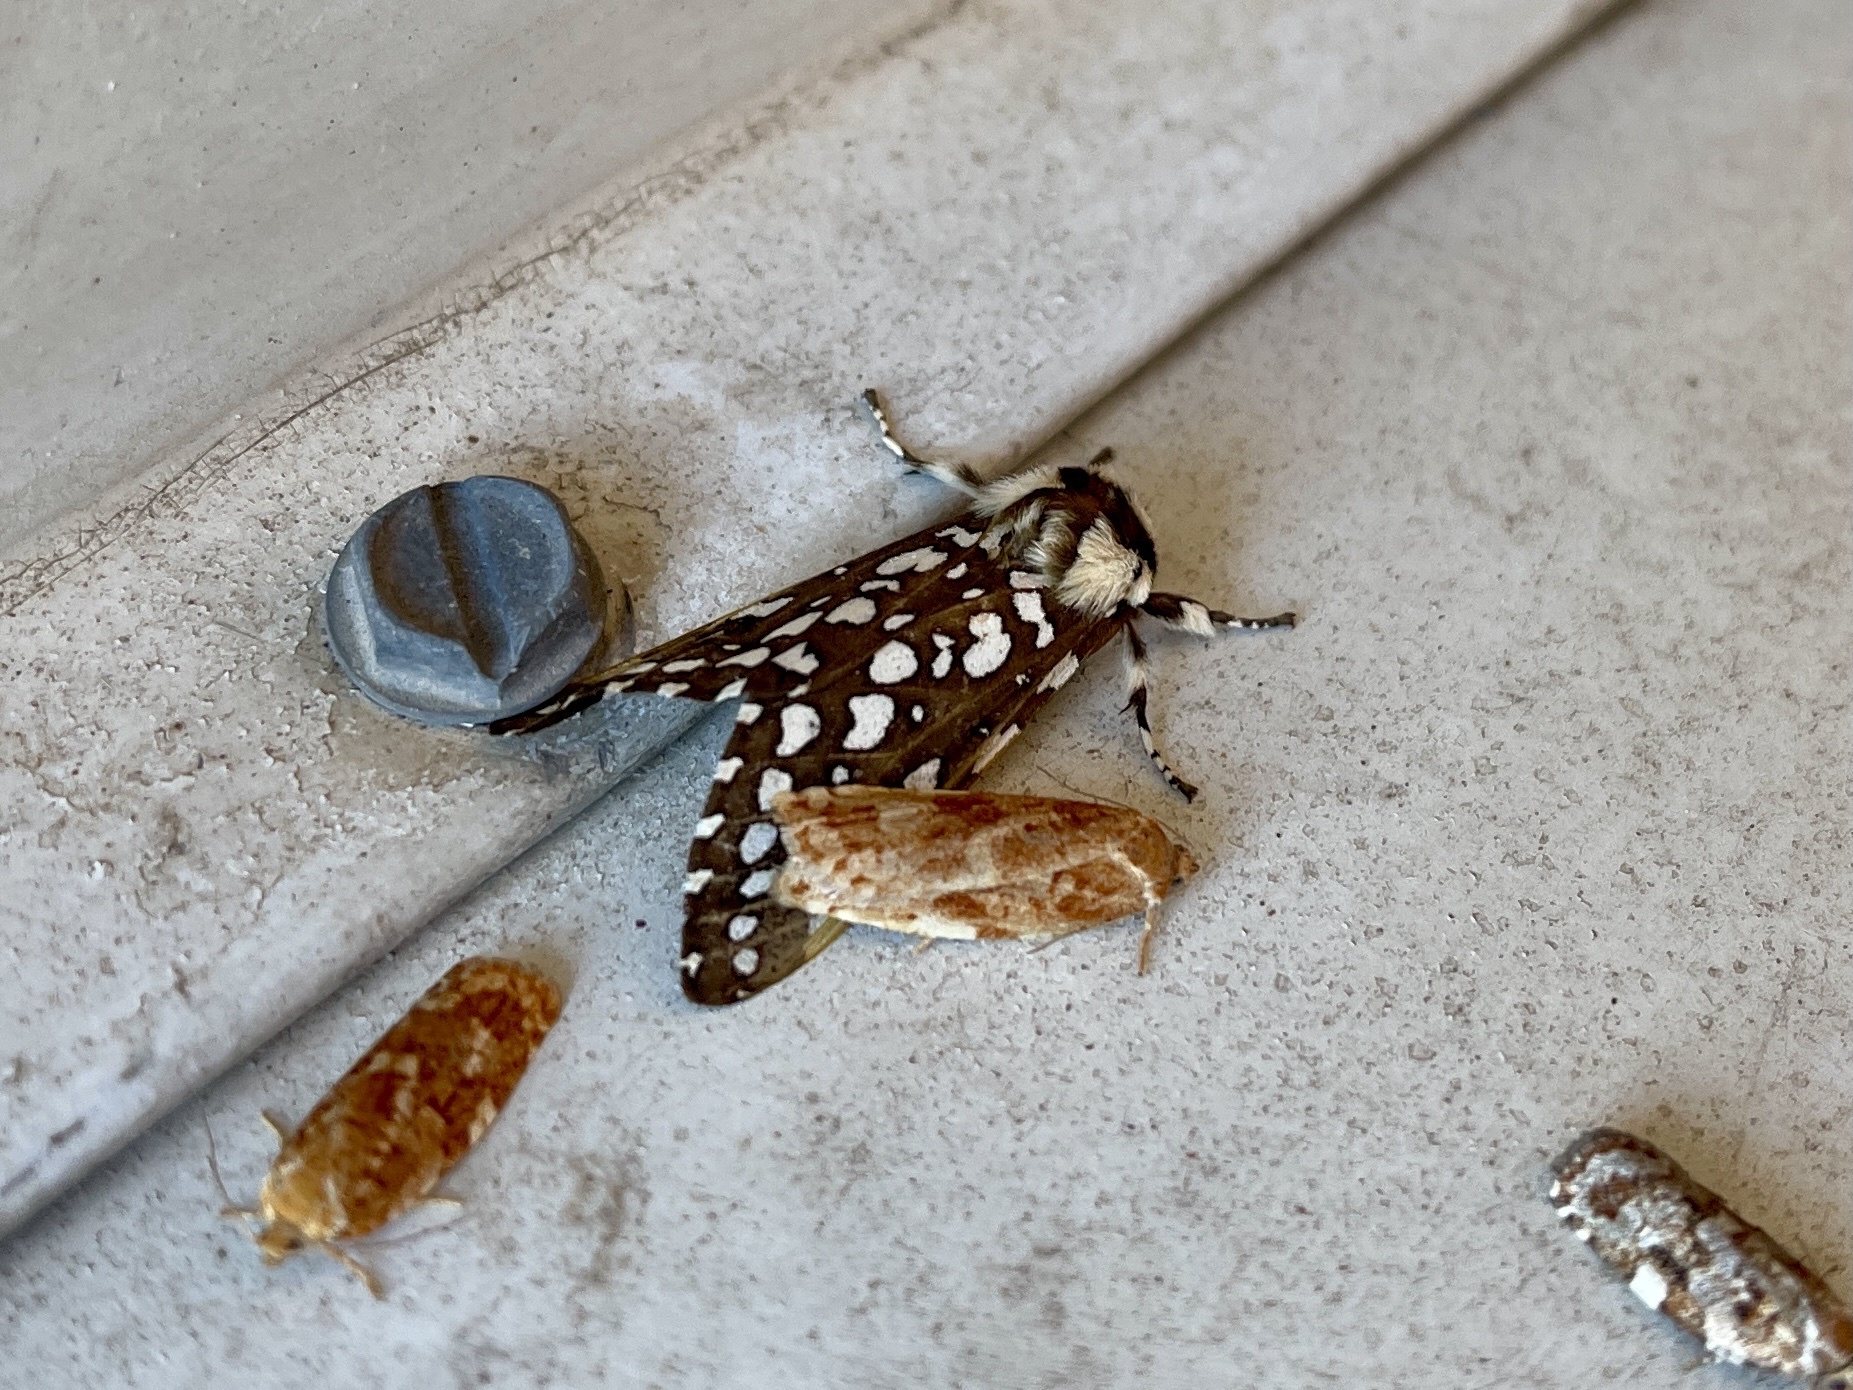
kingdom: Animalia
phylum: Arthropoda
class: Insecta
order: Lepidoptera
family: Erebidae
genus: Lophocampa
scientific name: Lophocampa ingens
